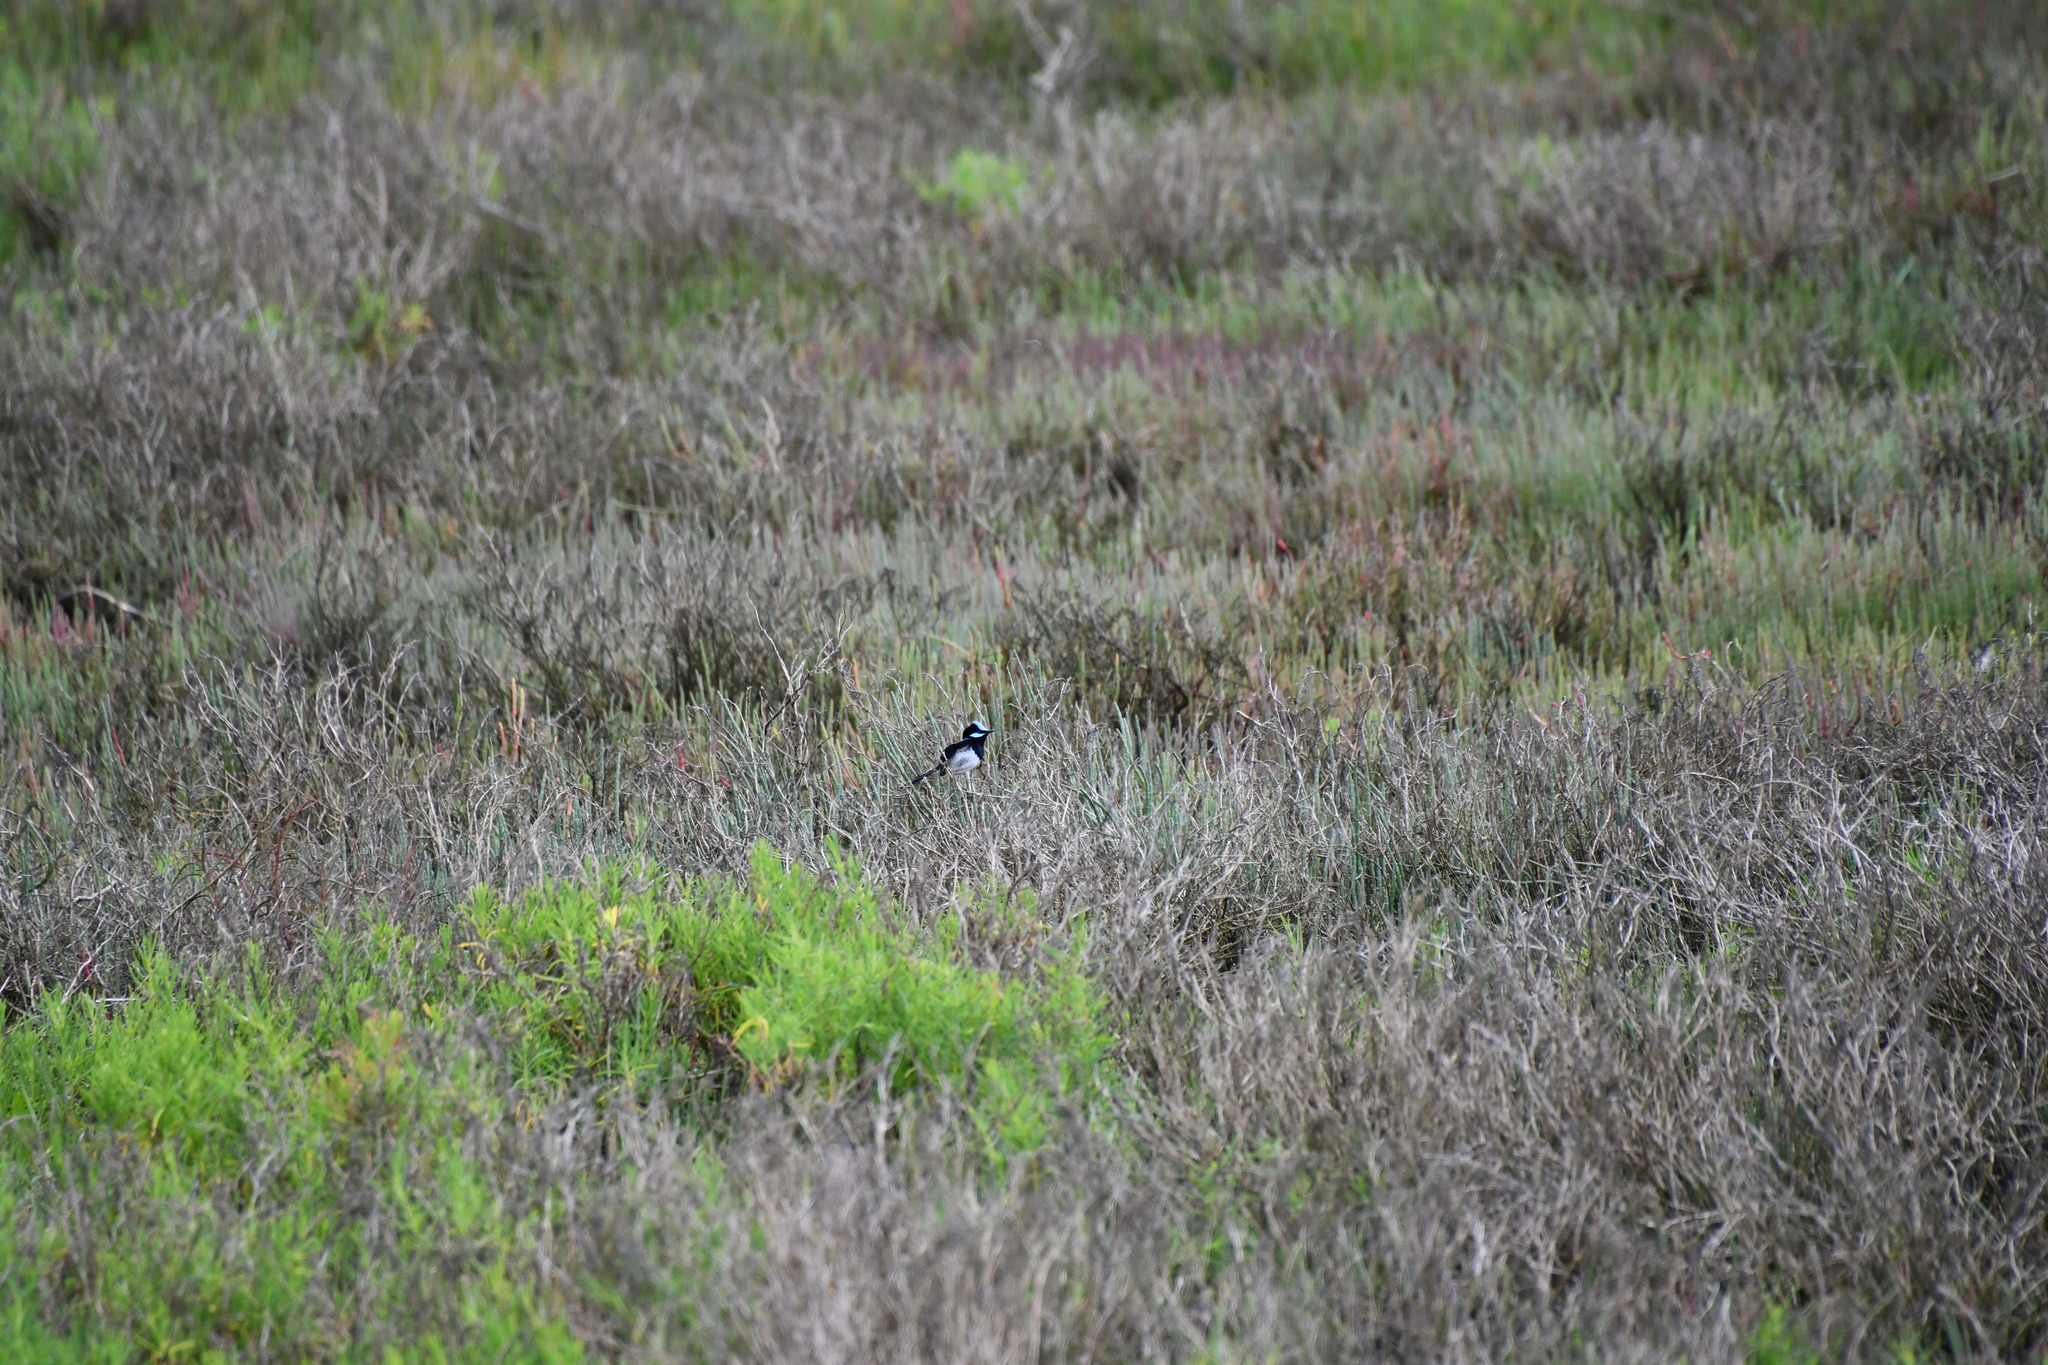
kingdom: Animalia
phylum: Chordata
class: Aves
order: Passeriformes
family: Maluridae
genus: Malurus
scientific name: Malurus cyaneus
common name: Superb fairywren
